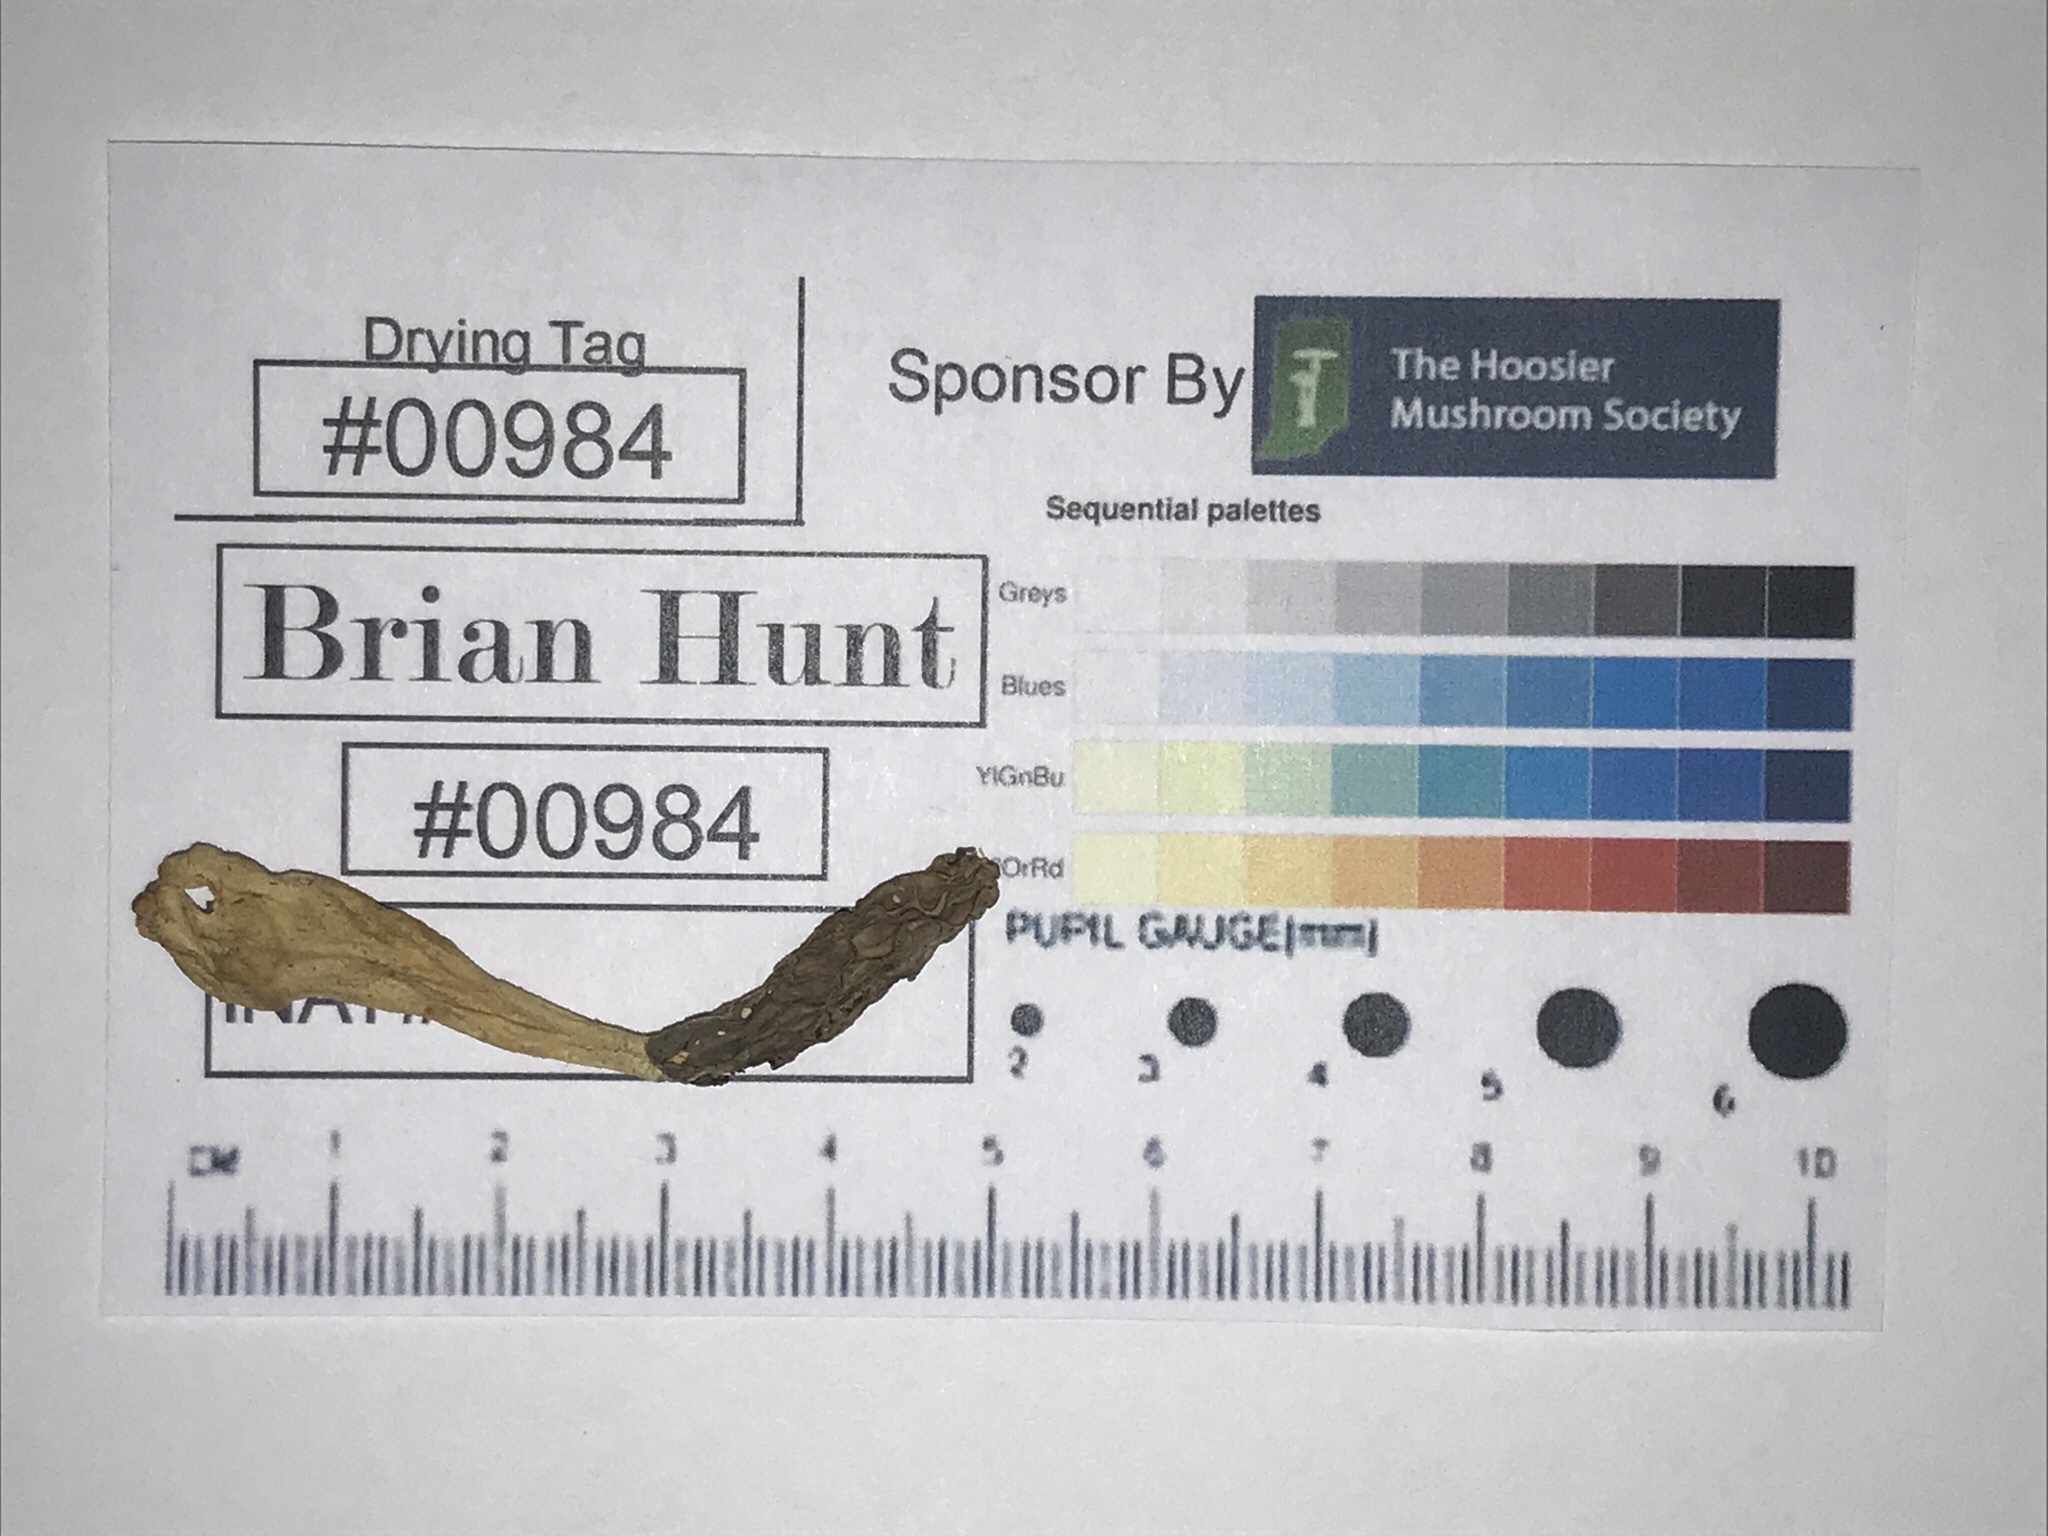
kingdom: Fungi
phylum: Ascomycota
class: Pezizomycetes
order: Pezizales
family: Morchellaceae
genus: Morchella
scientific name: Morchella diminutiva
